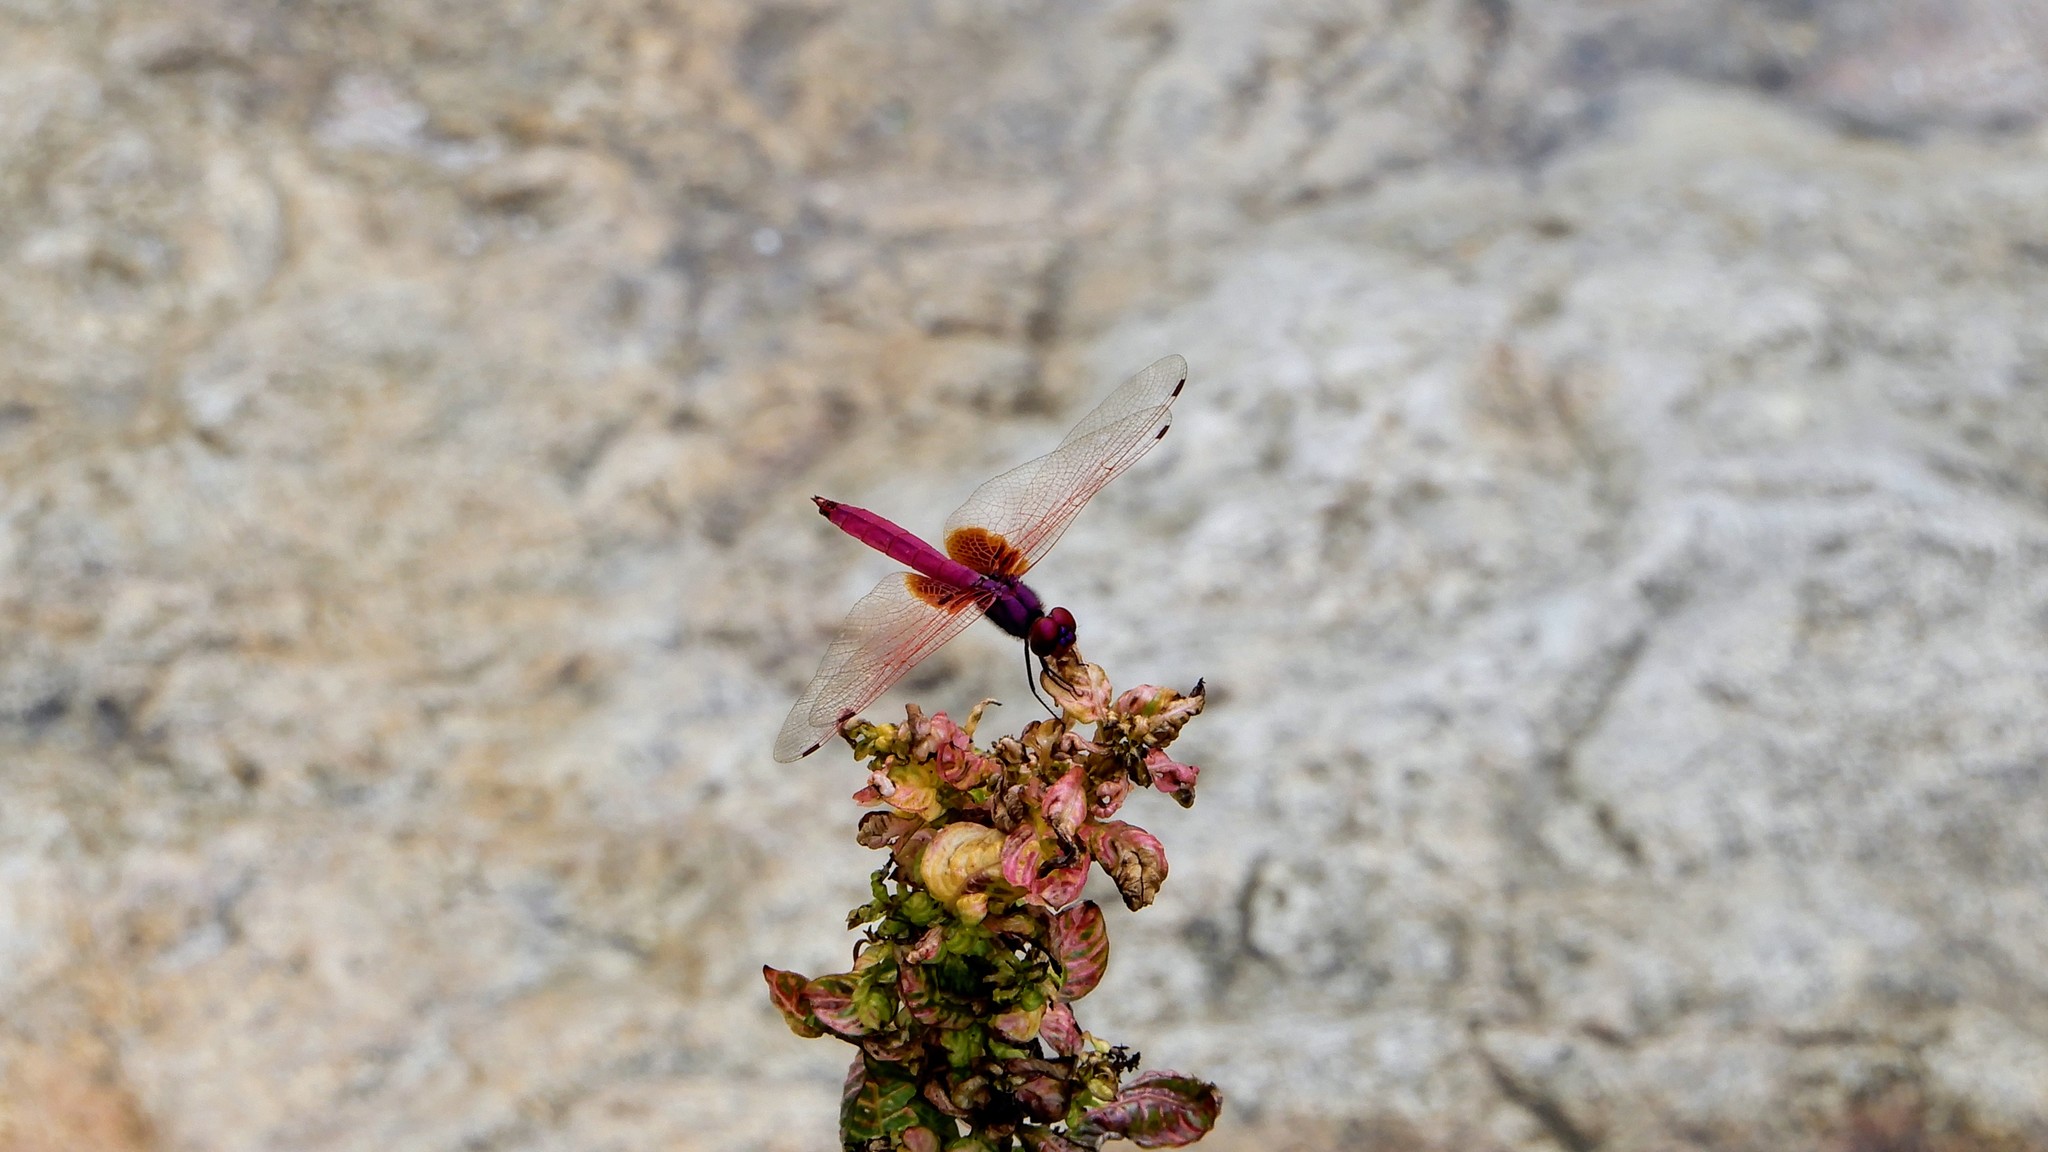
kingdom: Animalia
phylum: Arthropoda
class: Insecta
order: Odonata
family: Libellulidae
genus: Trithemis
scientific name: Trithemis aurora
